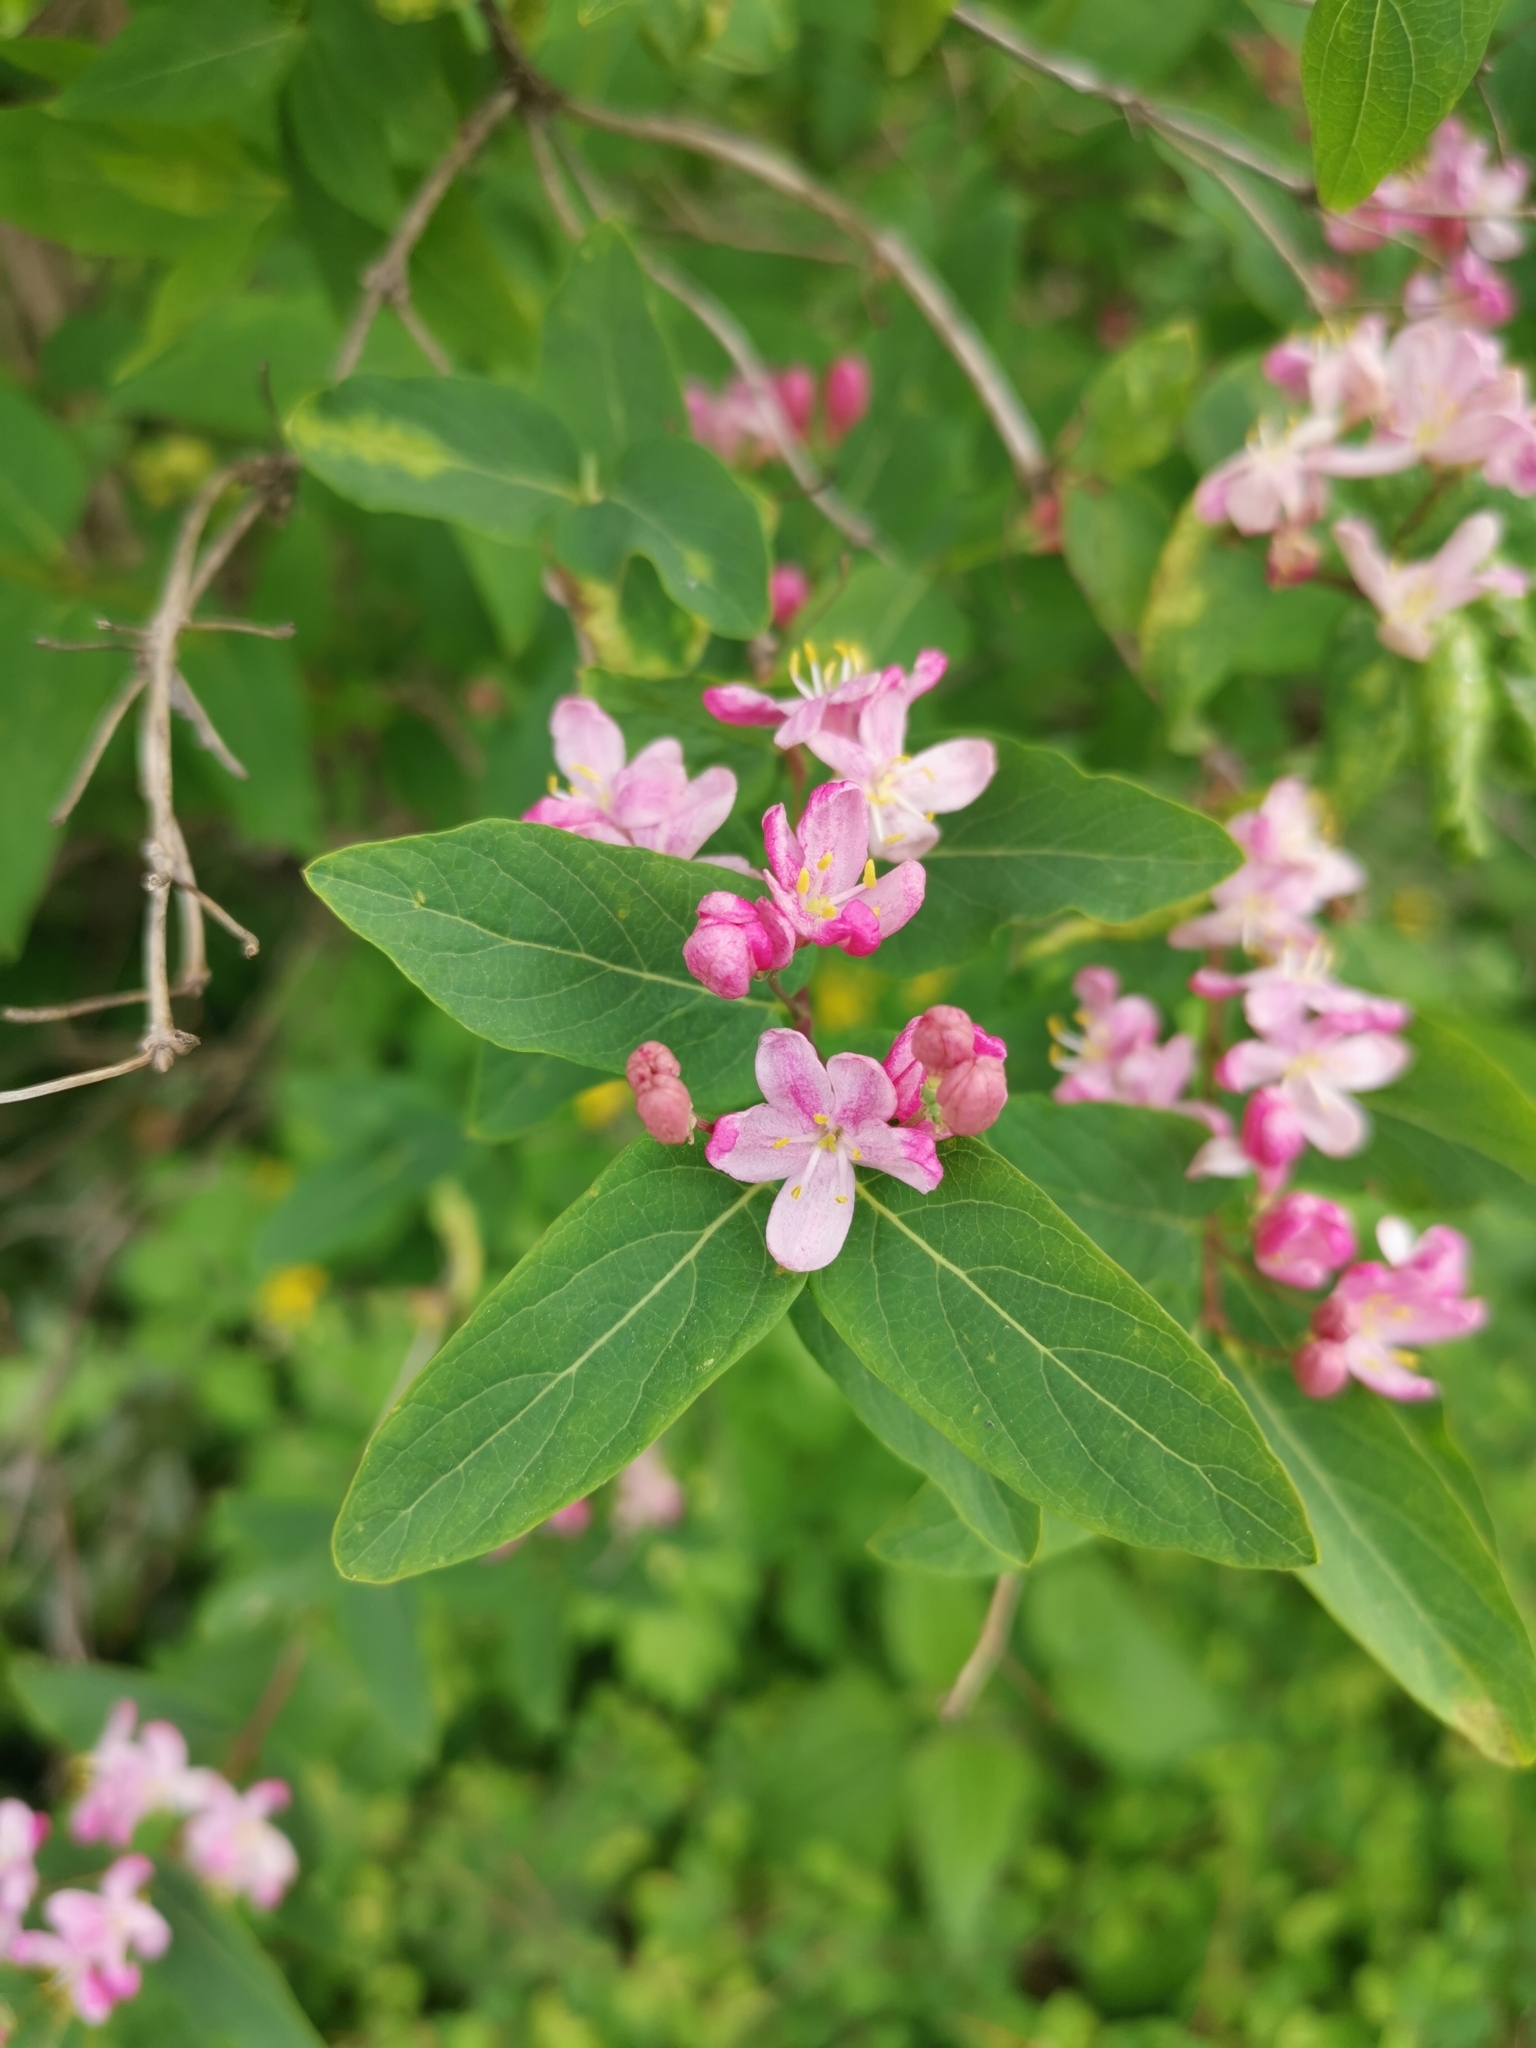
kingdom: Plantae
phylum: Tracheophyta
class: Magnoliopsida
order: Dipsacales
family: Caprifoliaceae
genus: Lonicera
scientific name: Lonicera tatarica
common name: Tatarian honeysuckle
